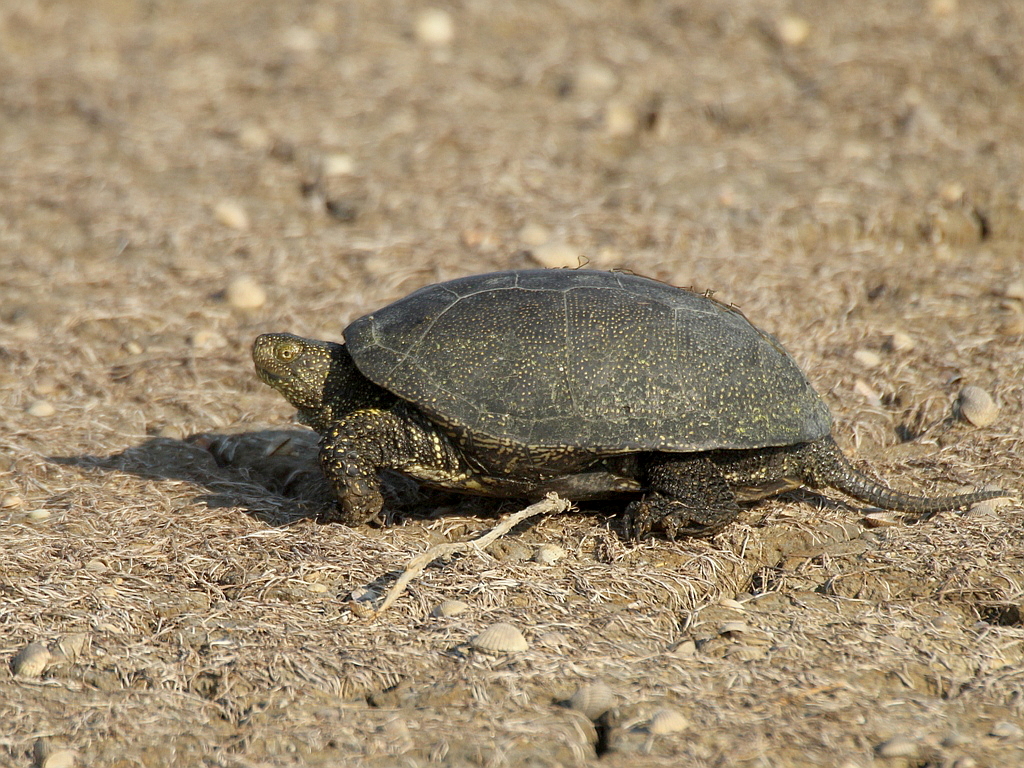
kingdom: Animalia
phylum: Chordata
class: Testudines
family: Emydidae
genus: Emys
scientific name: Emys orbicularis
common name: European pond turtle
